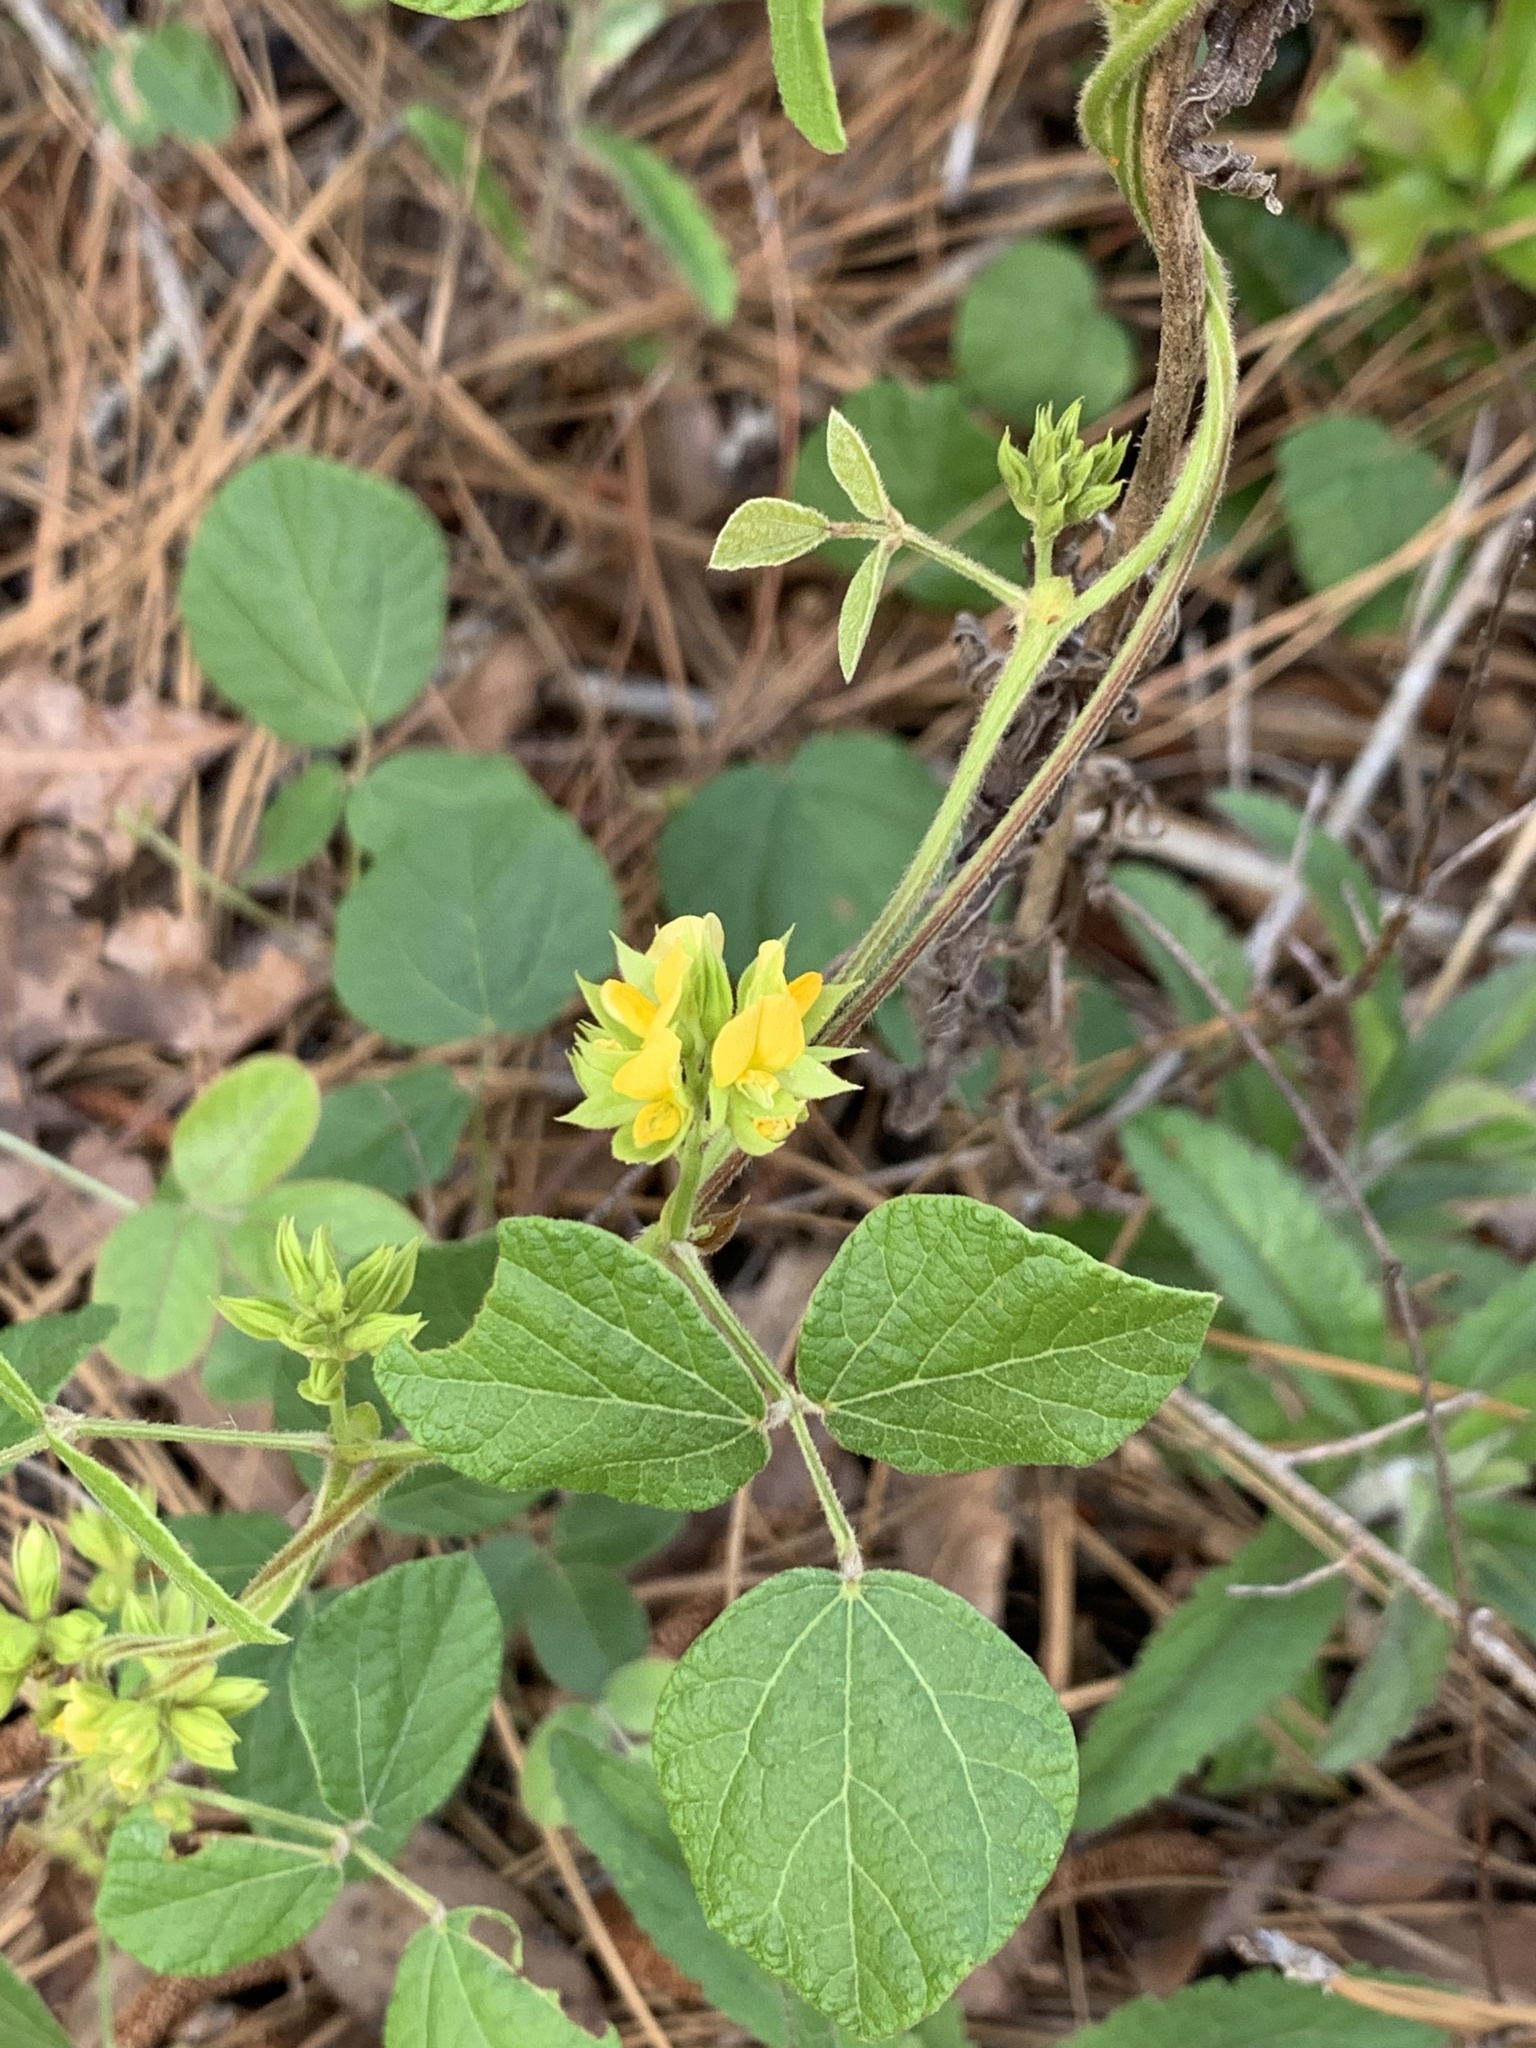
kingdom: Plantae
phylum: Tracheophyta
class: Magnoliopsida
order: Fabales
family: Fabaceae
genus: Rhynchosia
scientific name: Rhynchosia difformis
